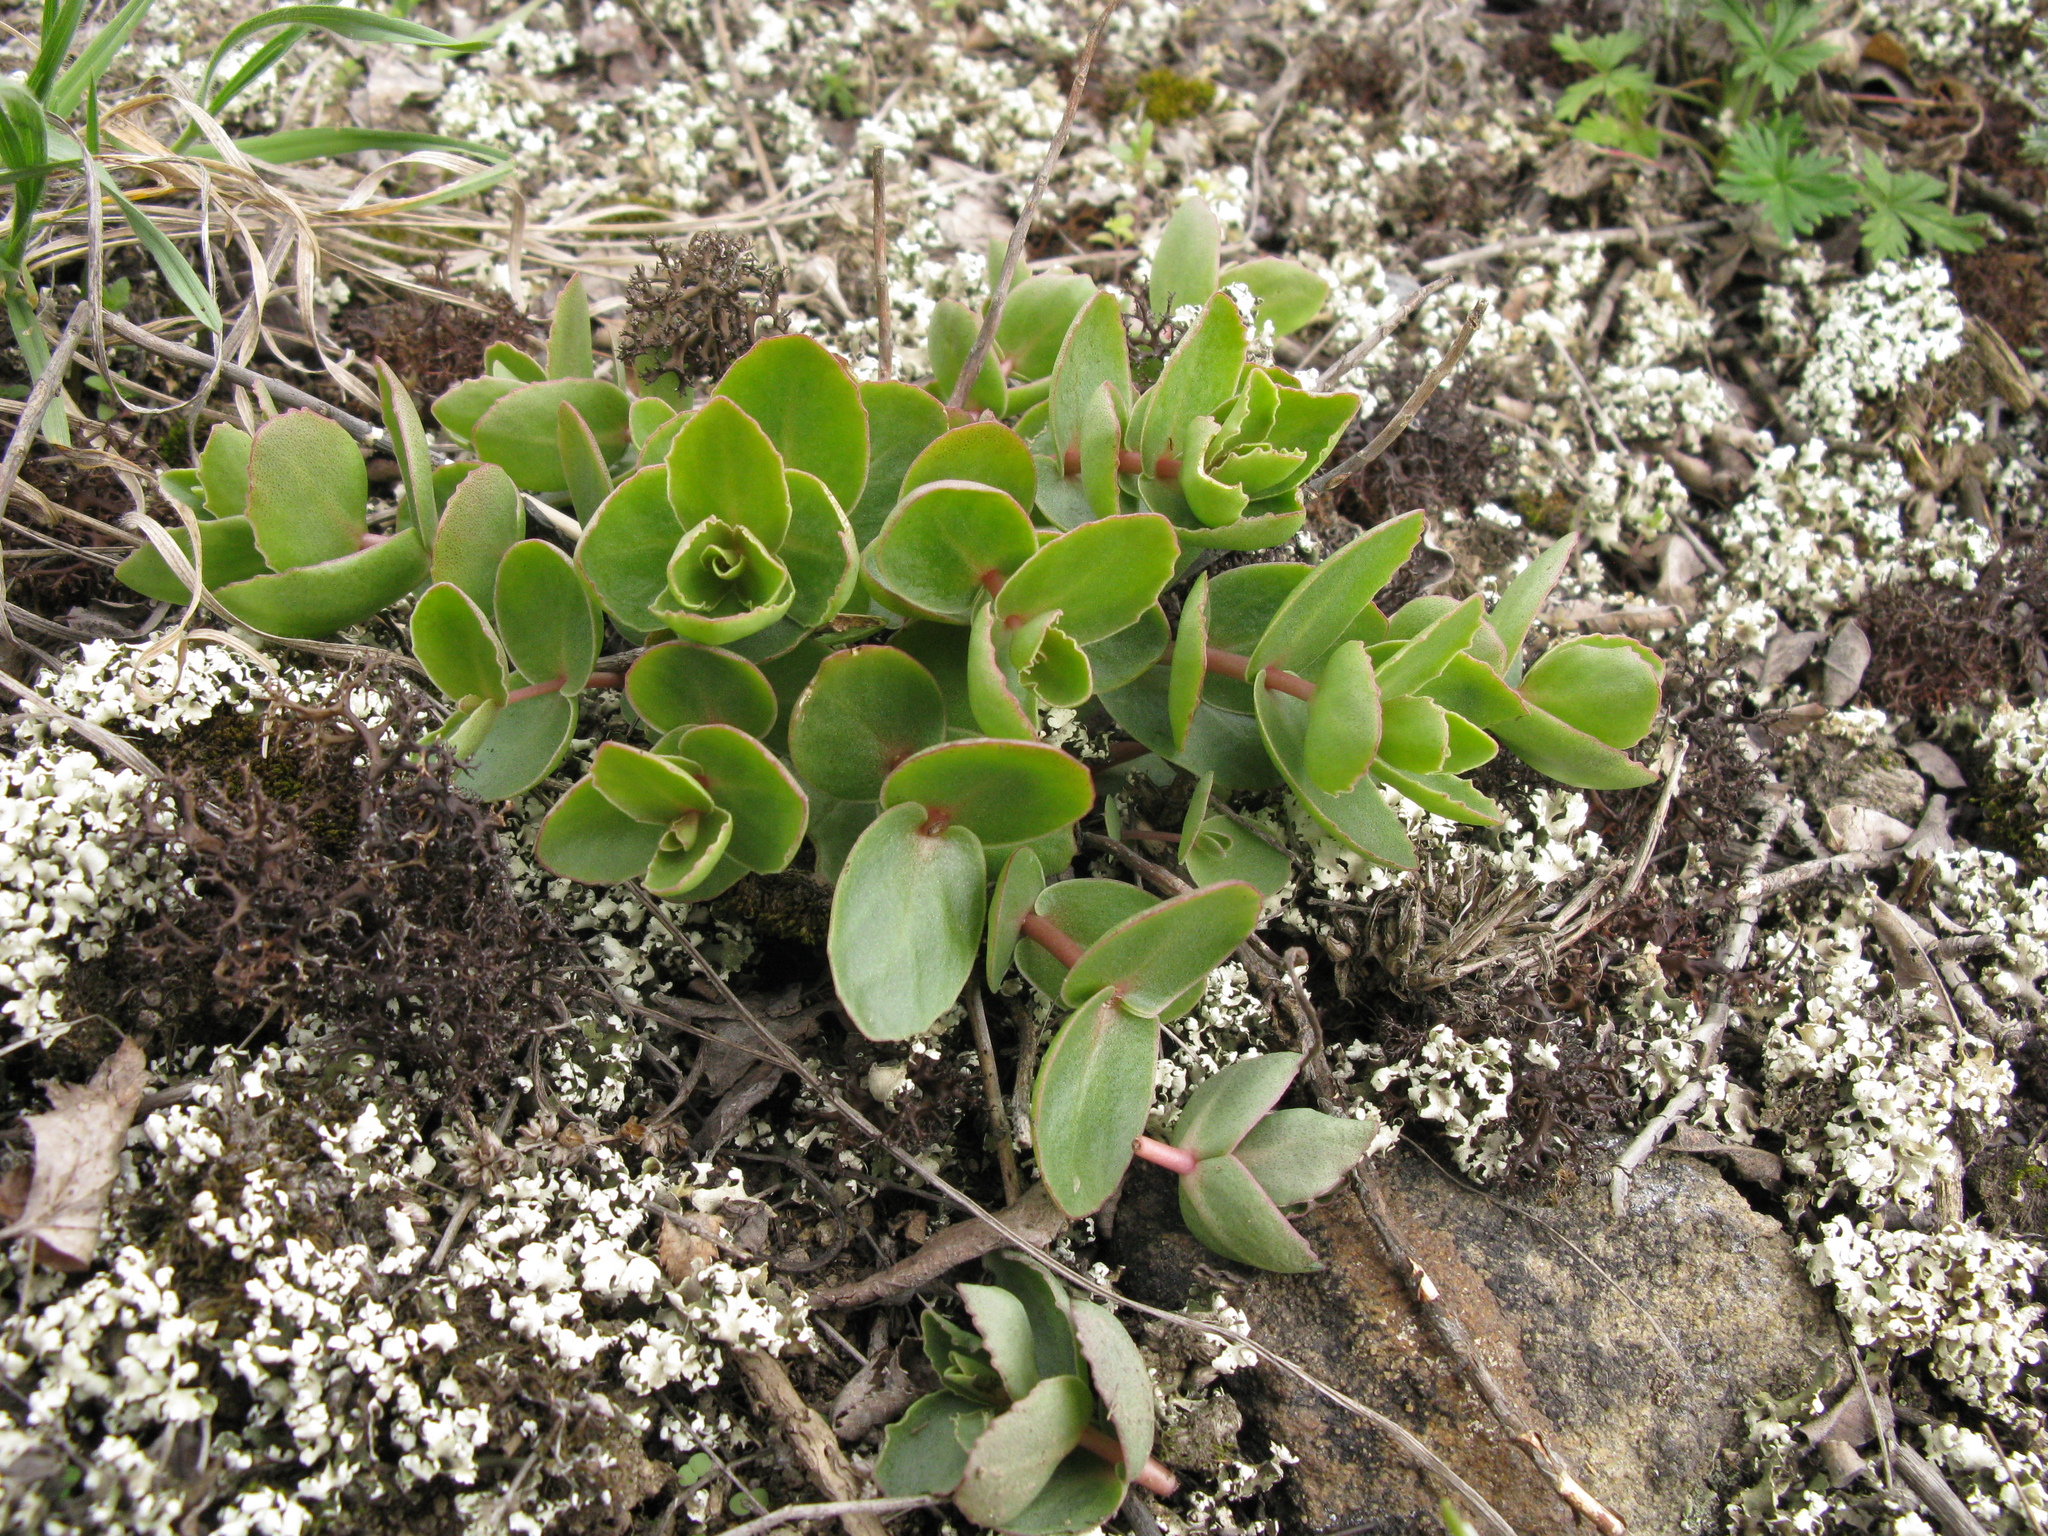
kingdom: Plantae
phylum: Tracheophyta
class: Magnoliopsida
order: Saxifragales
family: Crassulaceae
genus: Hylotelephium
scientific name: Hylotelephium maximum
